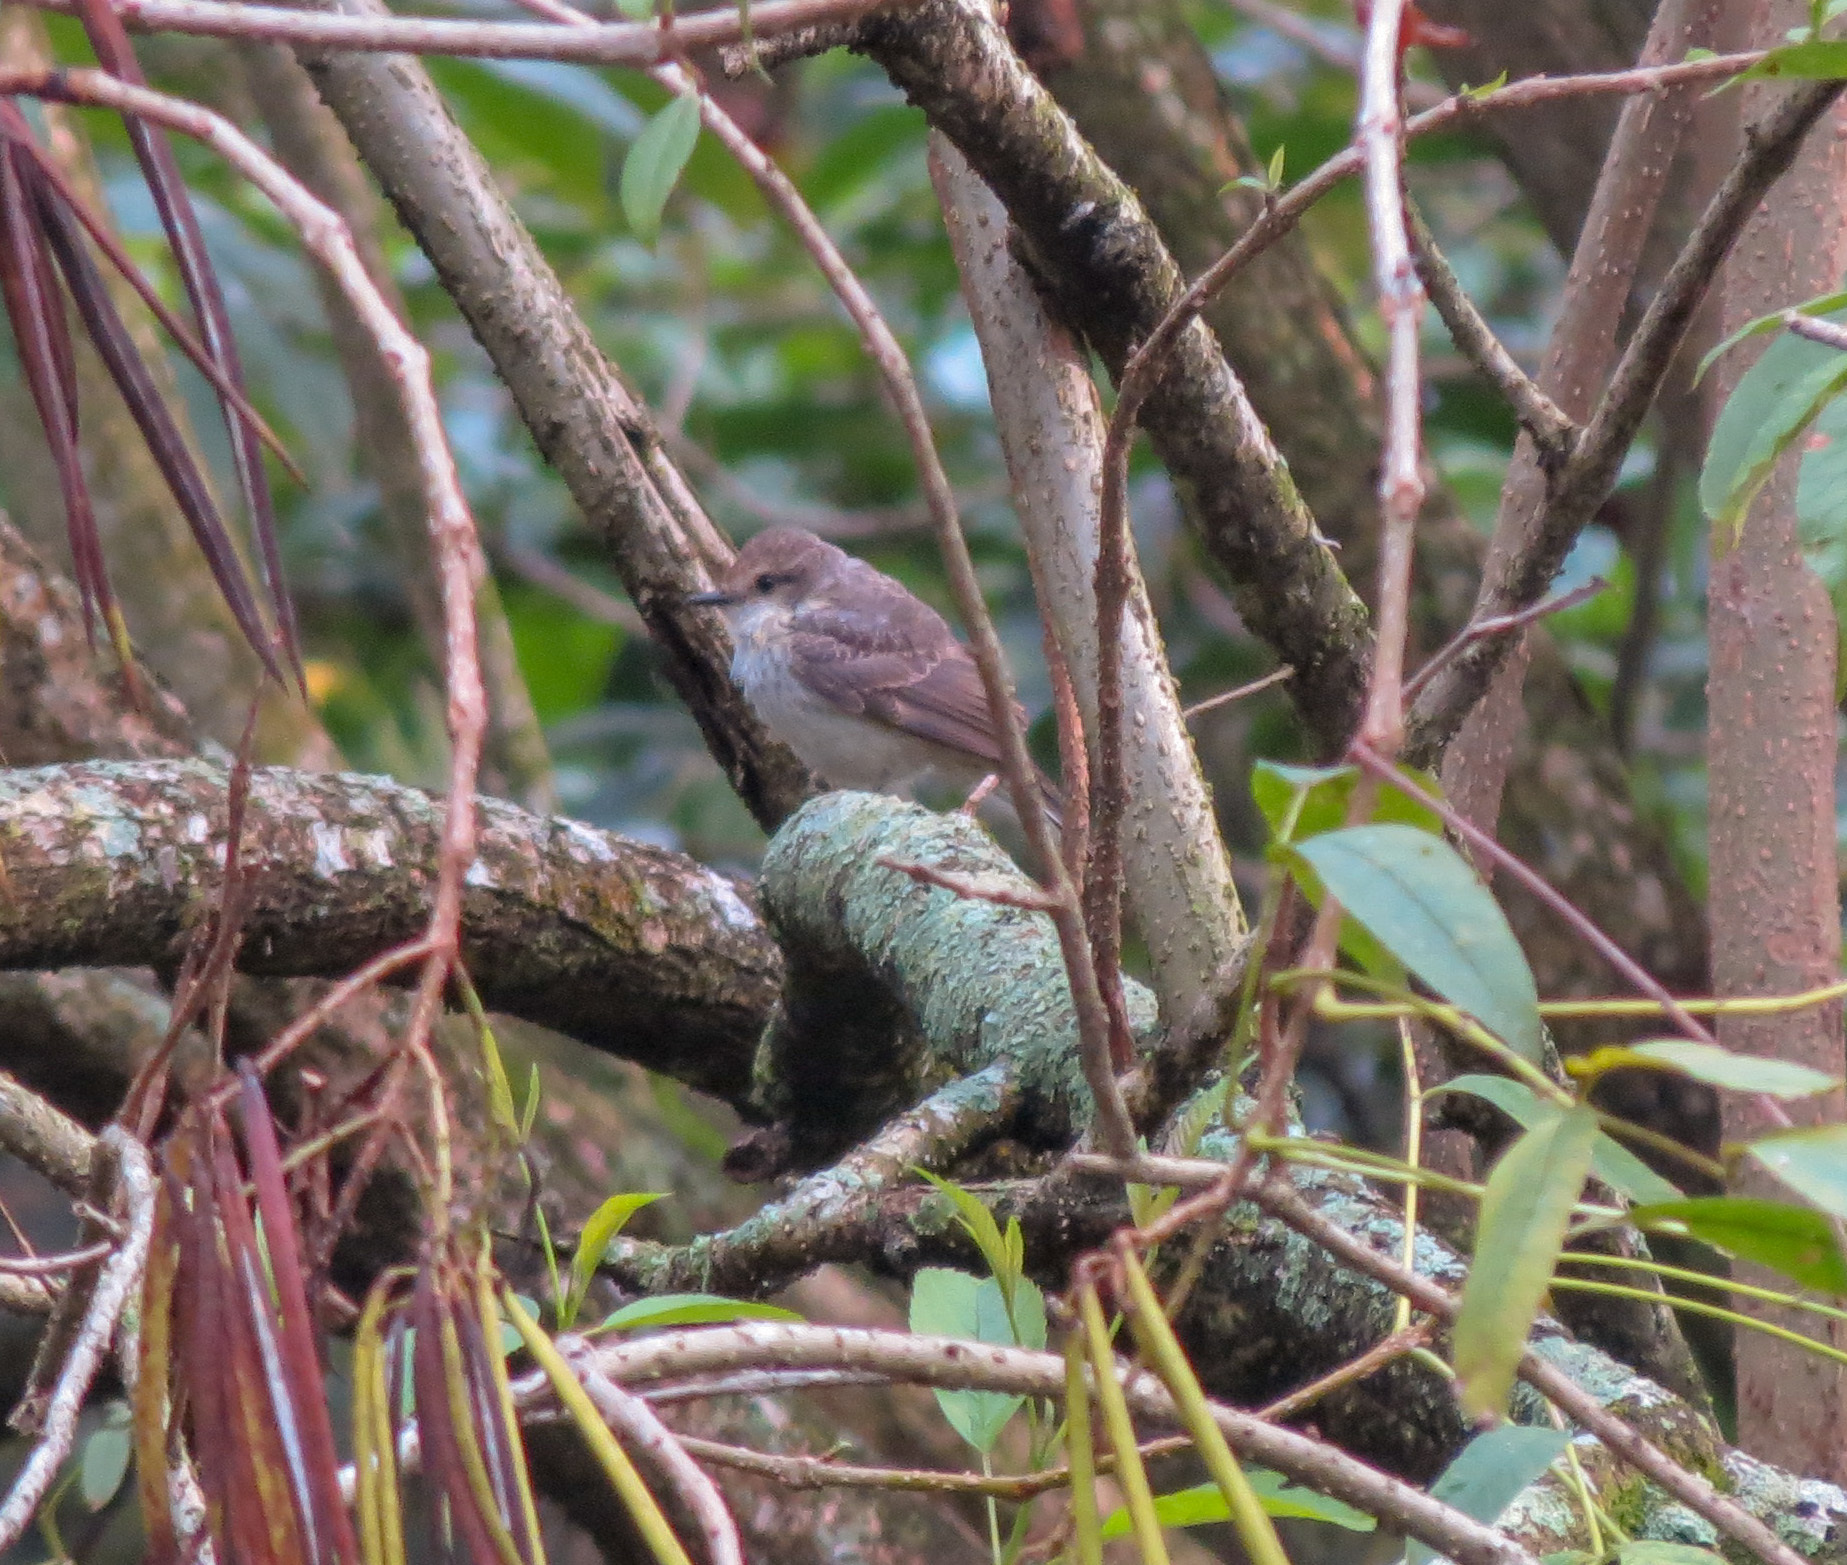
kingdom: Animalia
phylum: Chordata
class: Aves
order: Passeriformes
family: Tyrannidae
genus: Pyrocephalus
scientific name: Pyrocephalus rubinus
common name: Vermilion flycatcher
